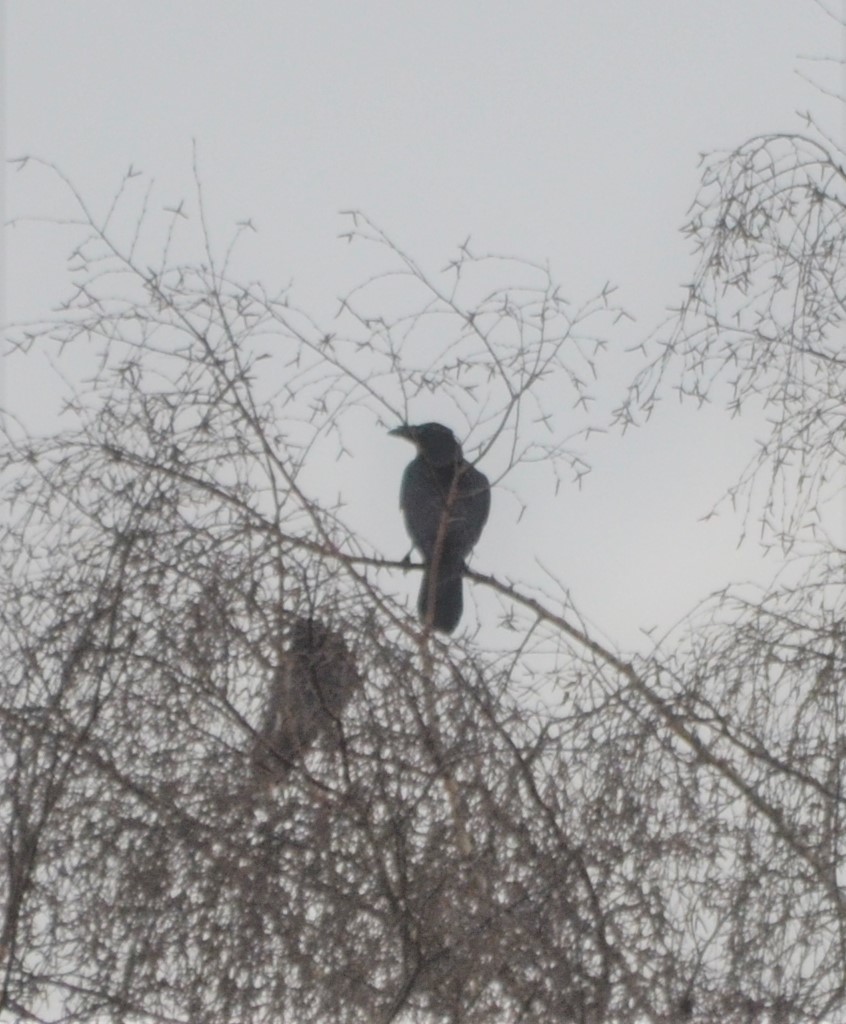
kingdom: Animalia
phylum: Chordata
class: Aves
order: Passeriformes
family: Corvidae
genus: Corvus
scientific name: Corvus corone
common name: Carrion crow
